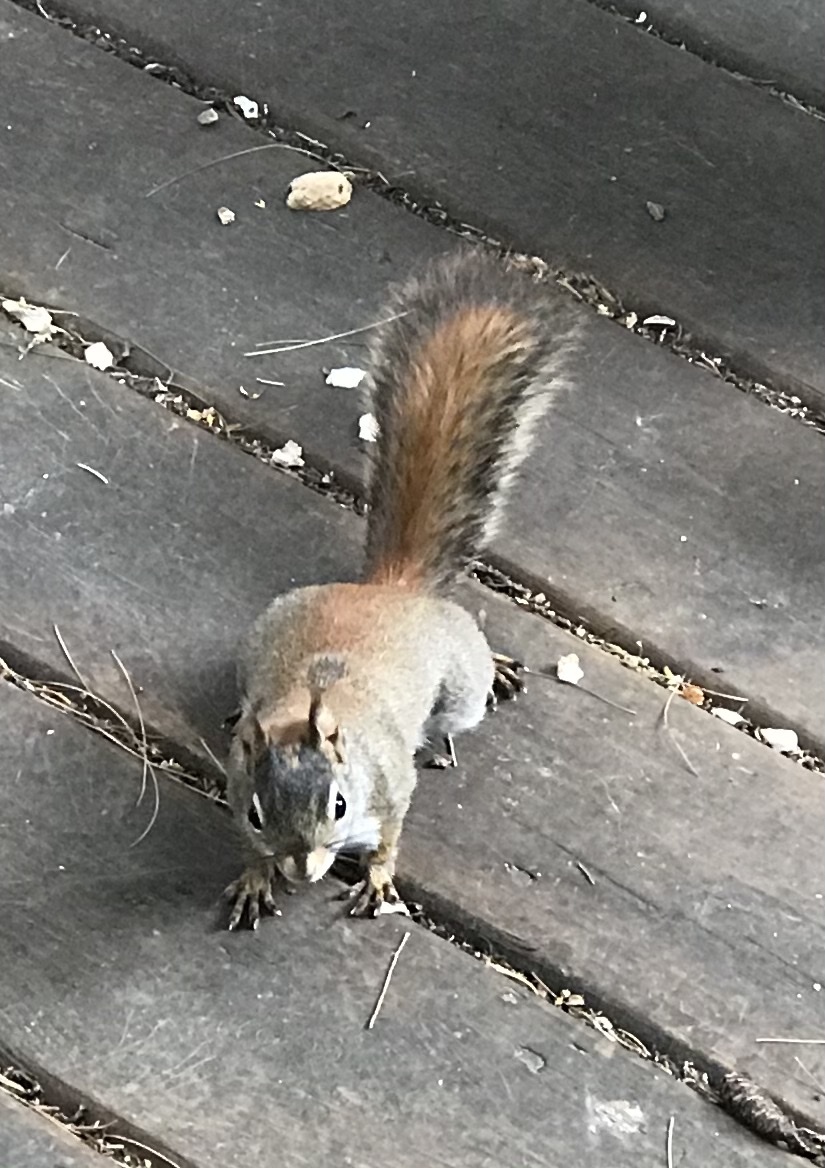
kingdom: Animalia
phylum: Chordata
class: Mammalia
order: Rodentia
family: Sciuridae
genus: Tamiasciurus
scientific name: Tamiasciurus hudsonicus
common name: Red squirrel
